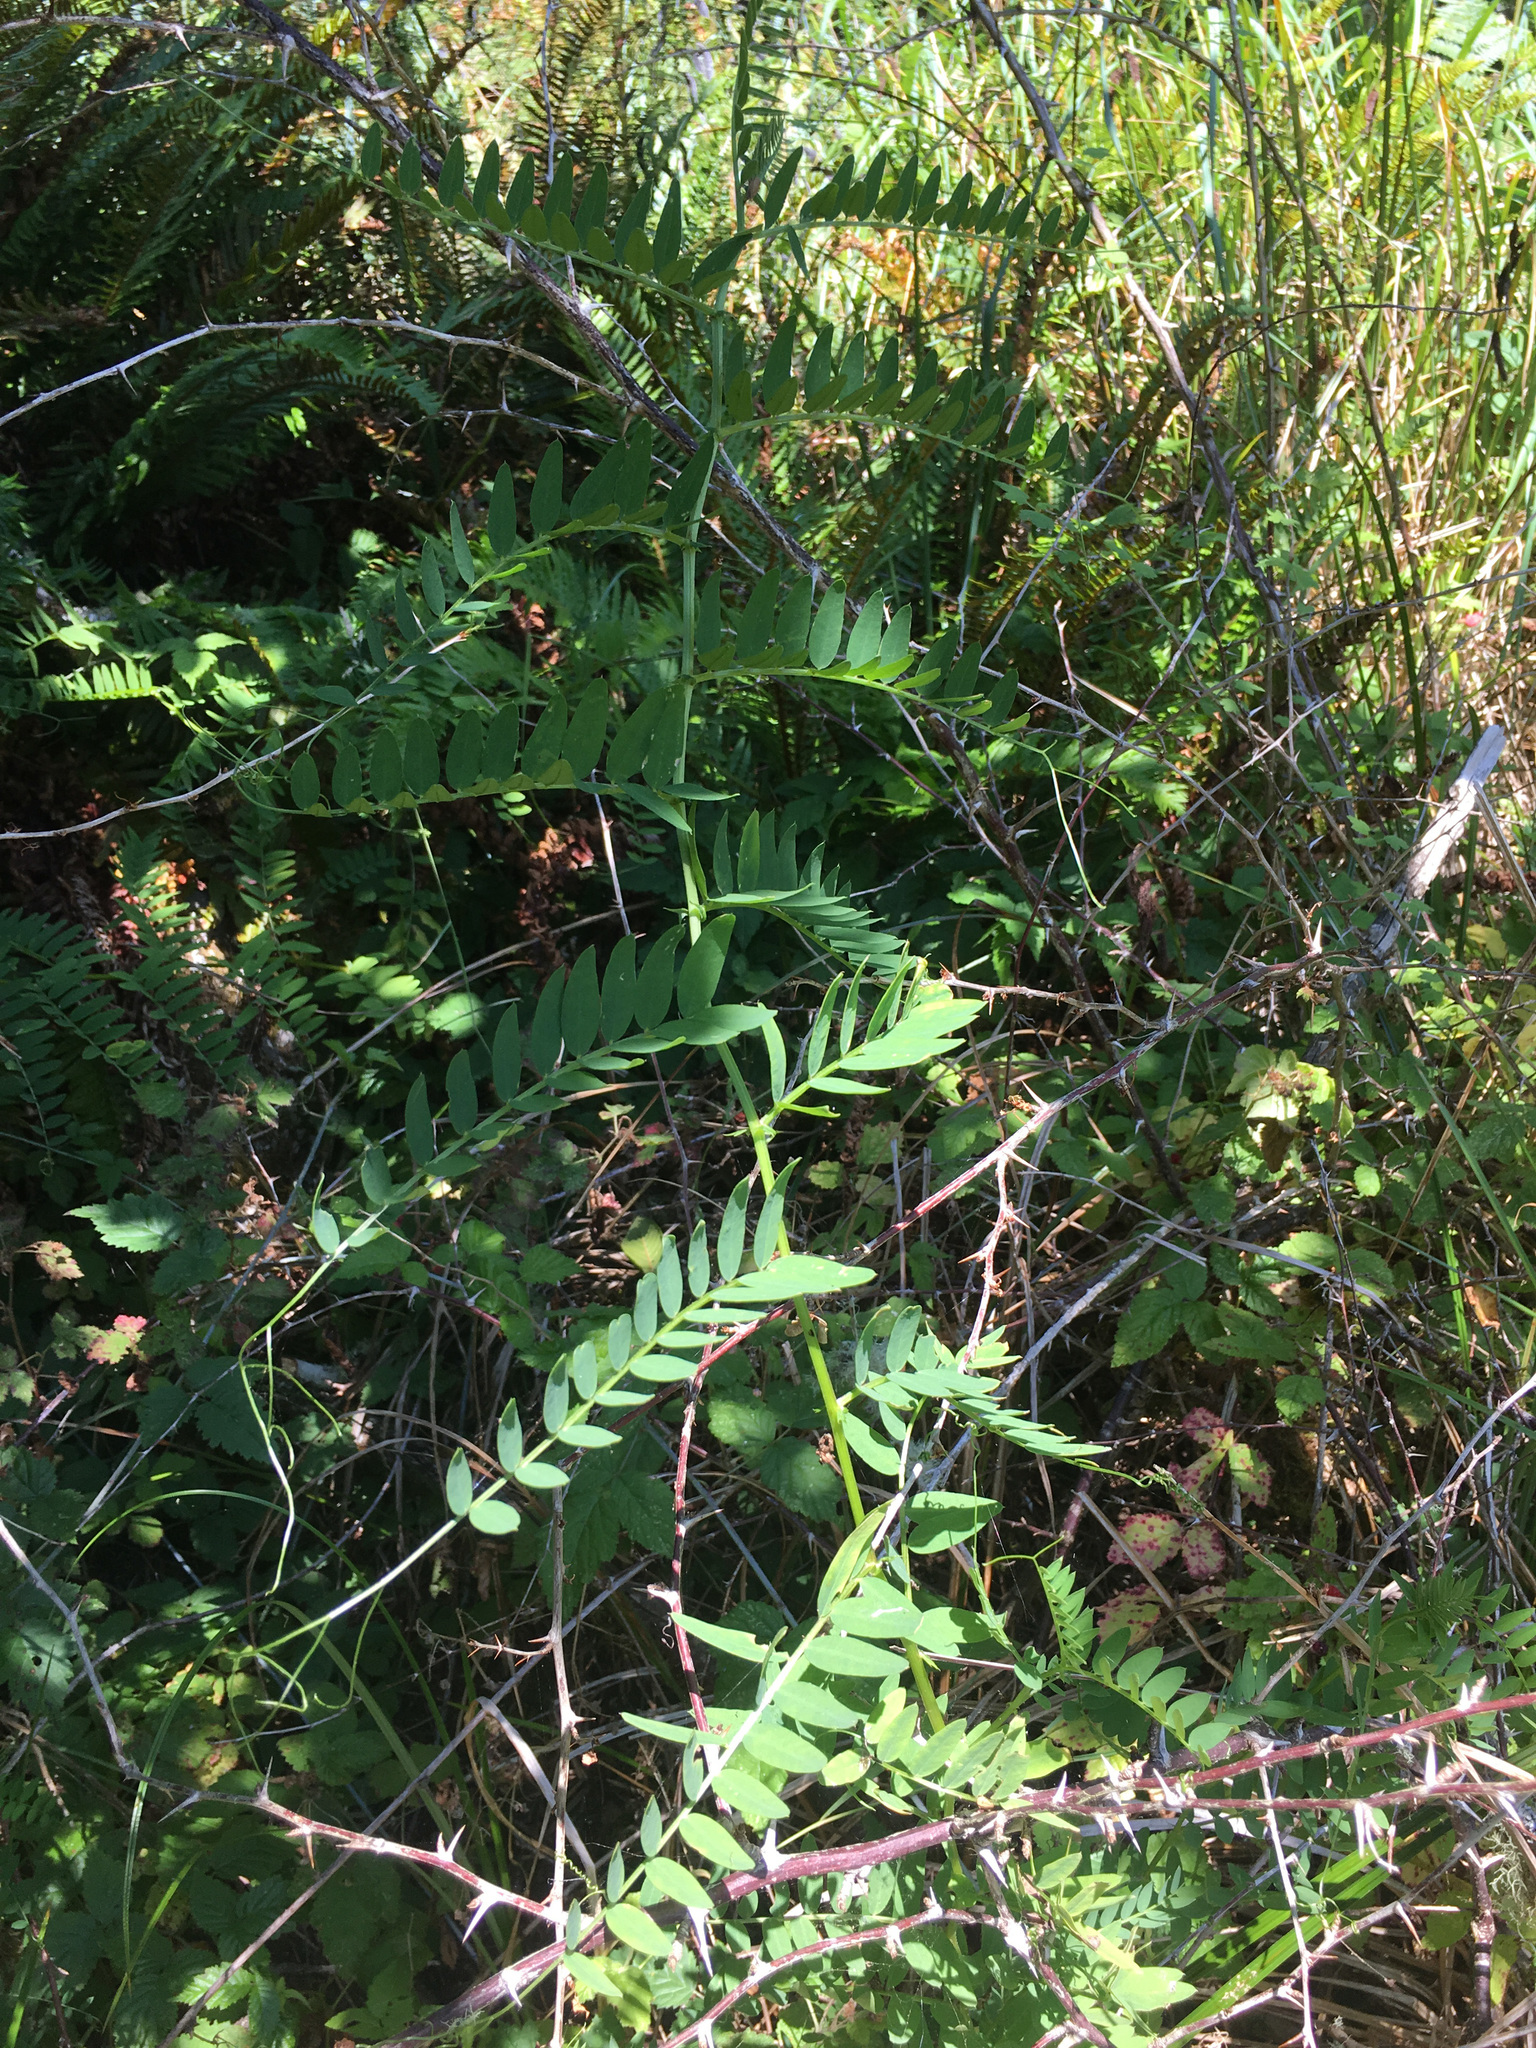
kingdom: Plantae
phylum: Tracheophyta
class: Magnoliopsida
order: Fabales
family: Fabaceae
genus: Vicia
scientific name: Vicia
